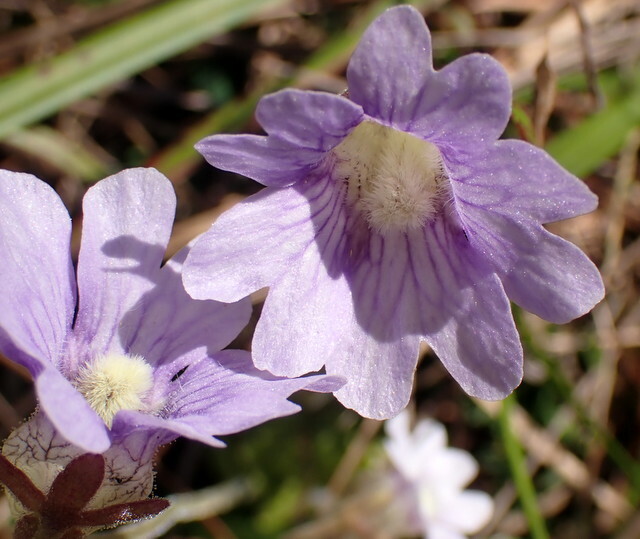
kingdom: Plantae
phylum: Tracheophyta
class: Magnoliopsida
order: Lamiales
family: Lentibulariaceae
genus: Pinguicula
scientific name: Pinguicula caerulea
